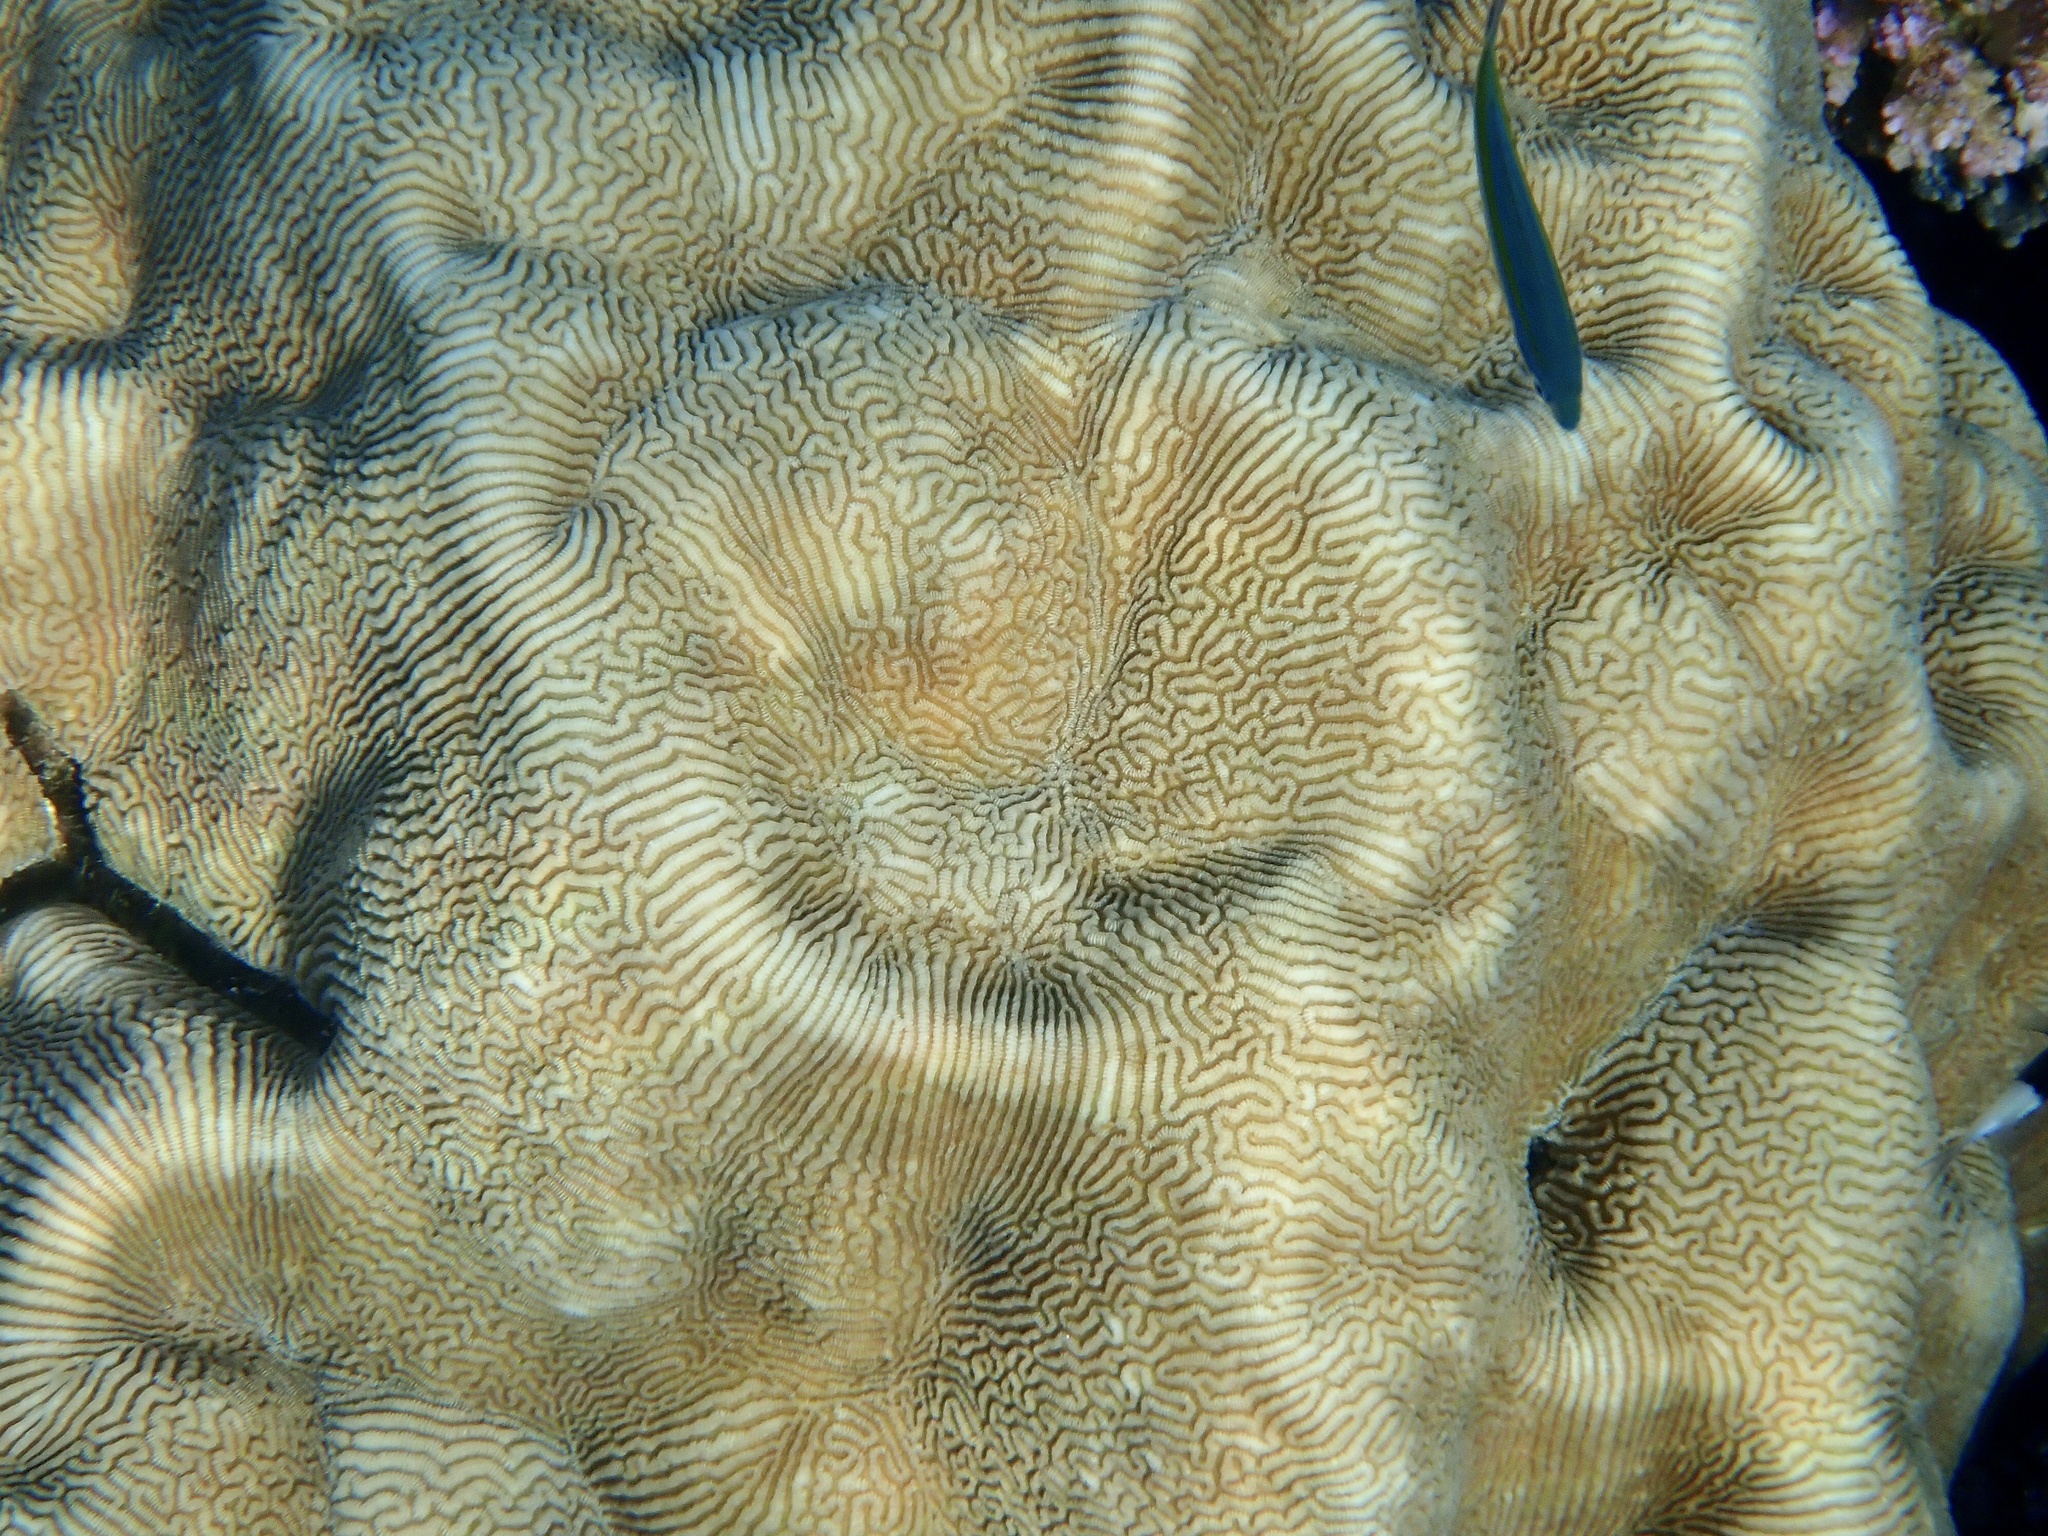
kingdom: Animalia
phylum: Cnidaria
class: Anthozoa
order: Scleractinia
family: Merulinidae
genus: Leptoria
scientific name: Leptoria phrygia
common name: Least valley coral
